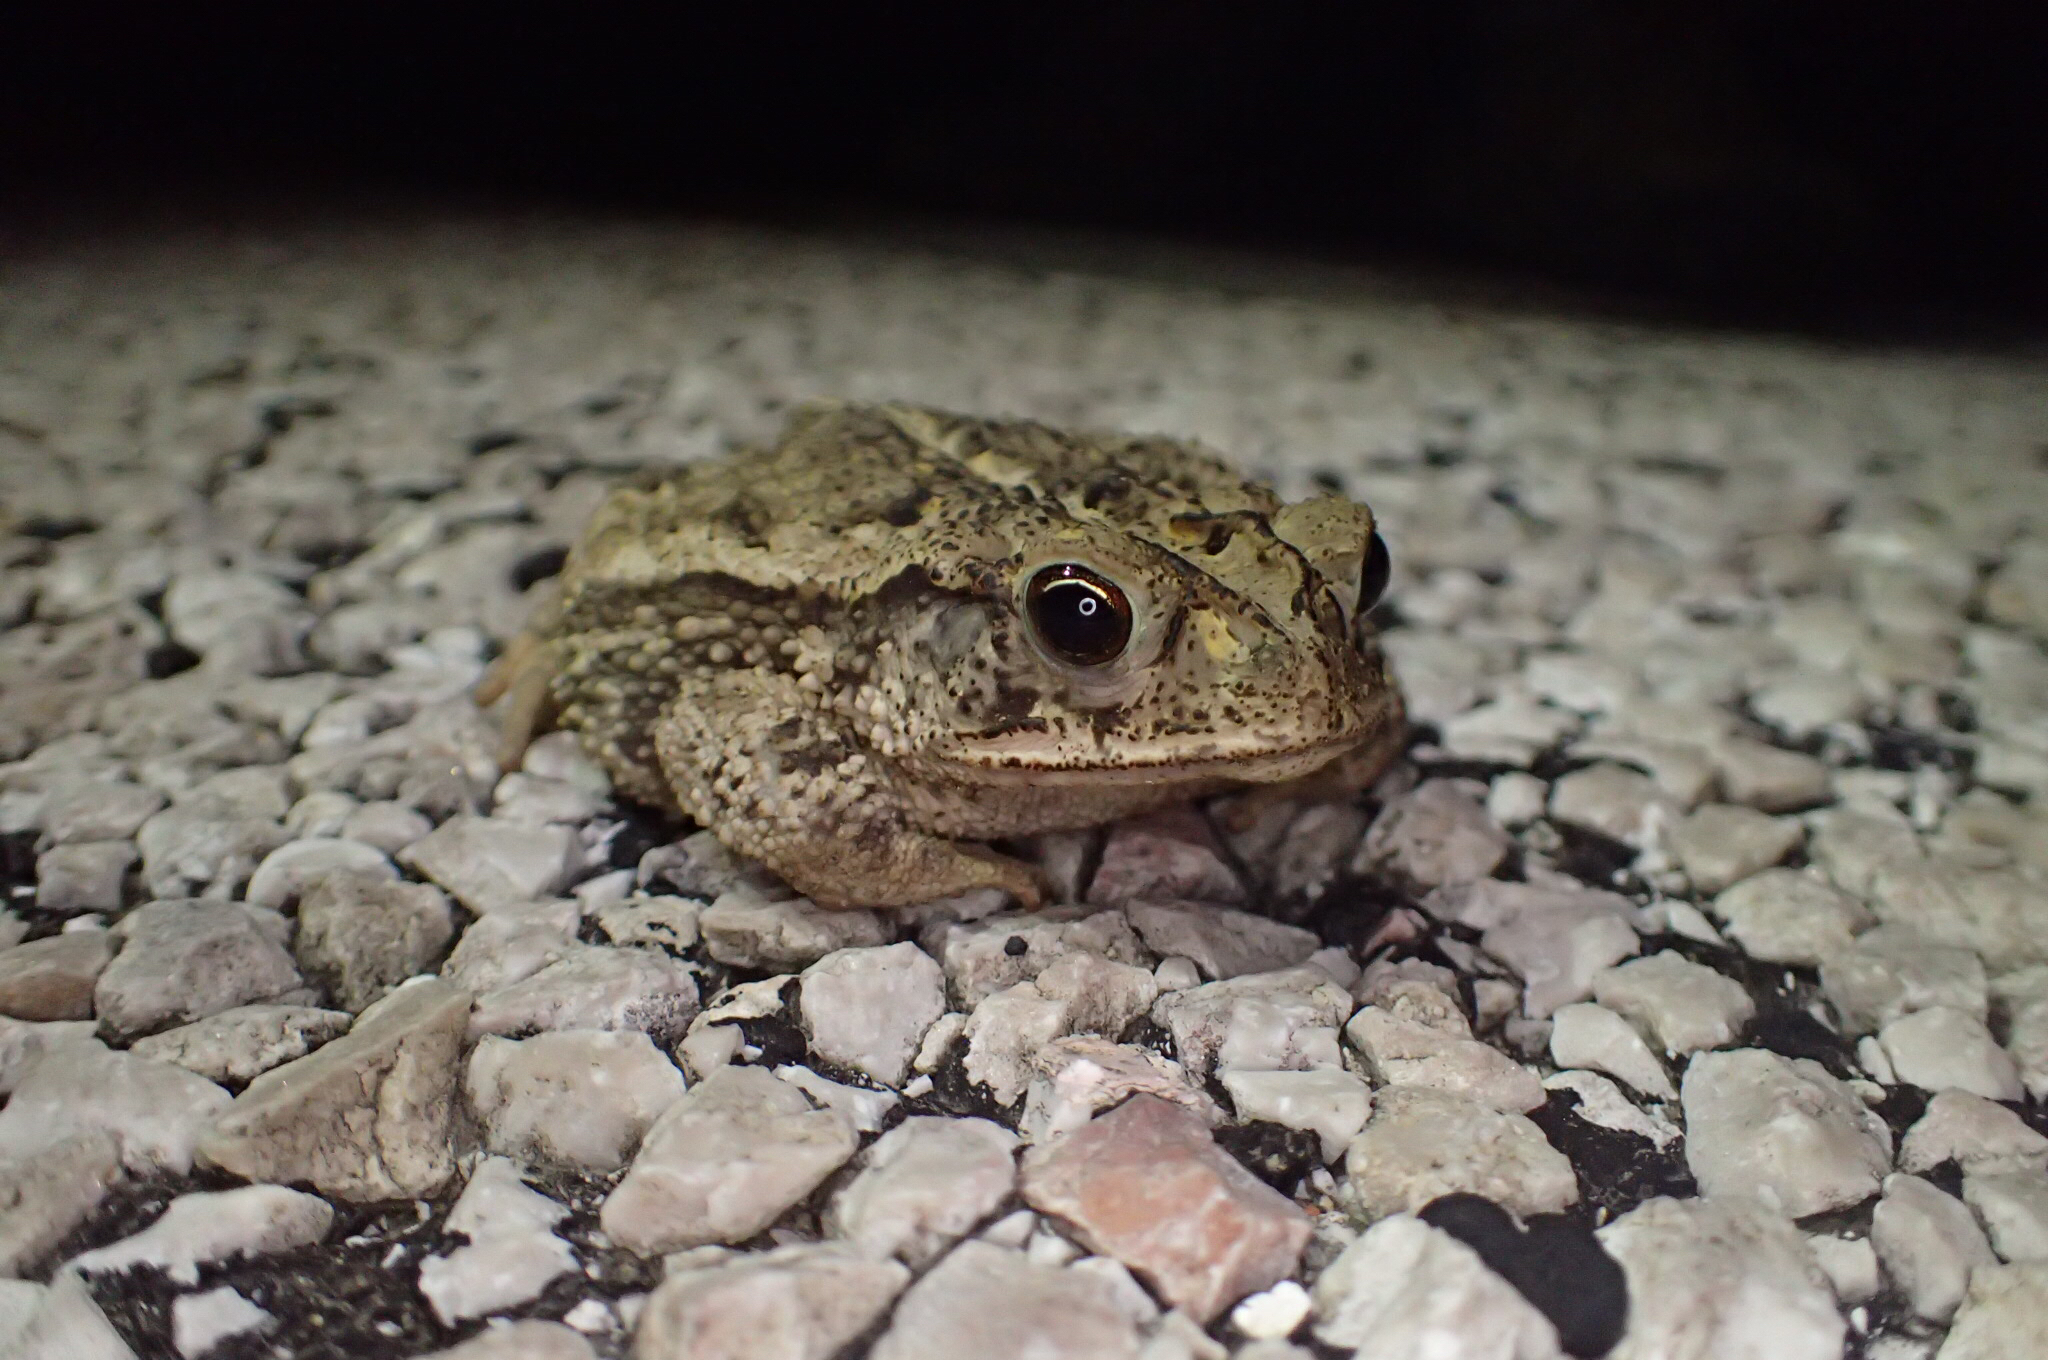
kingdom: Animalia
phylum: Chordata
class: Amphibia
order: Anura
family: Bufonidae
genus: Incilius
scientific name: Incilius nebulifer
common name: Gulf coast toad
